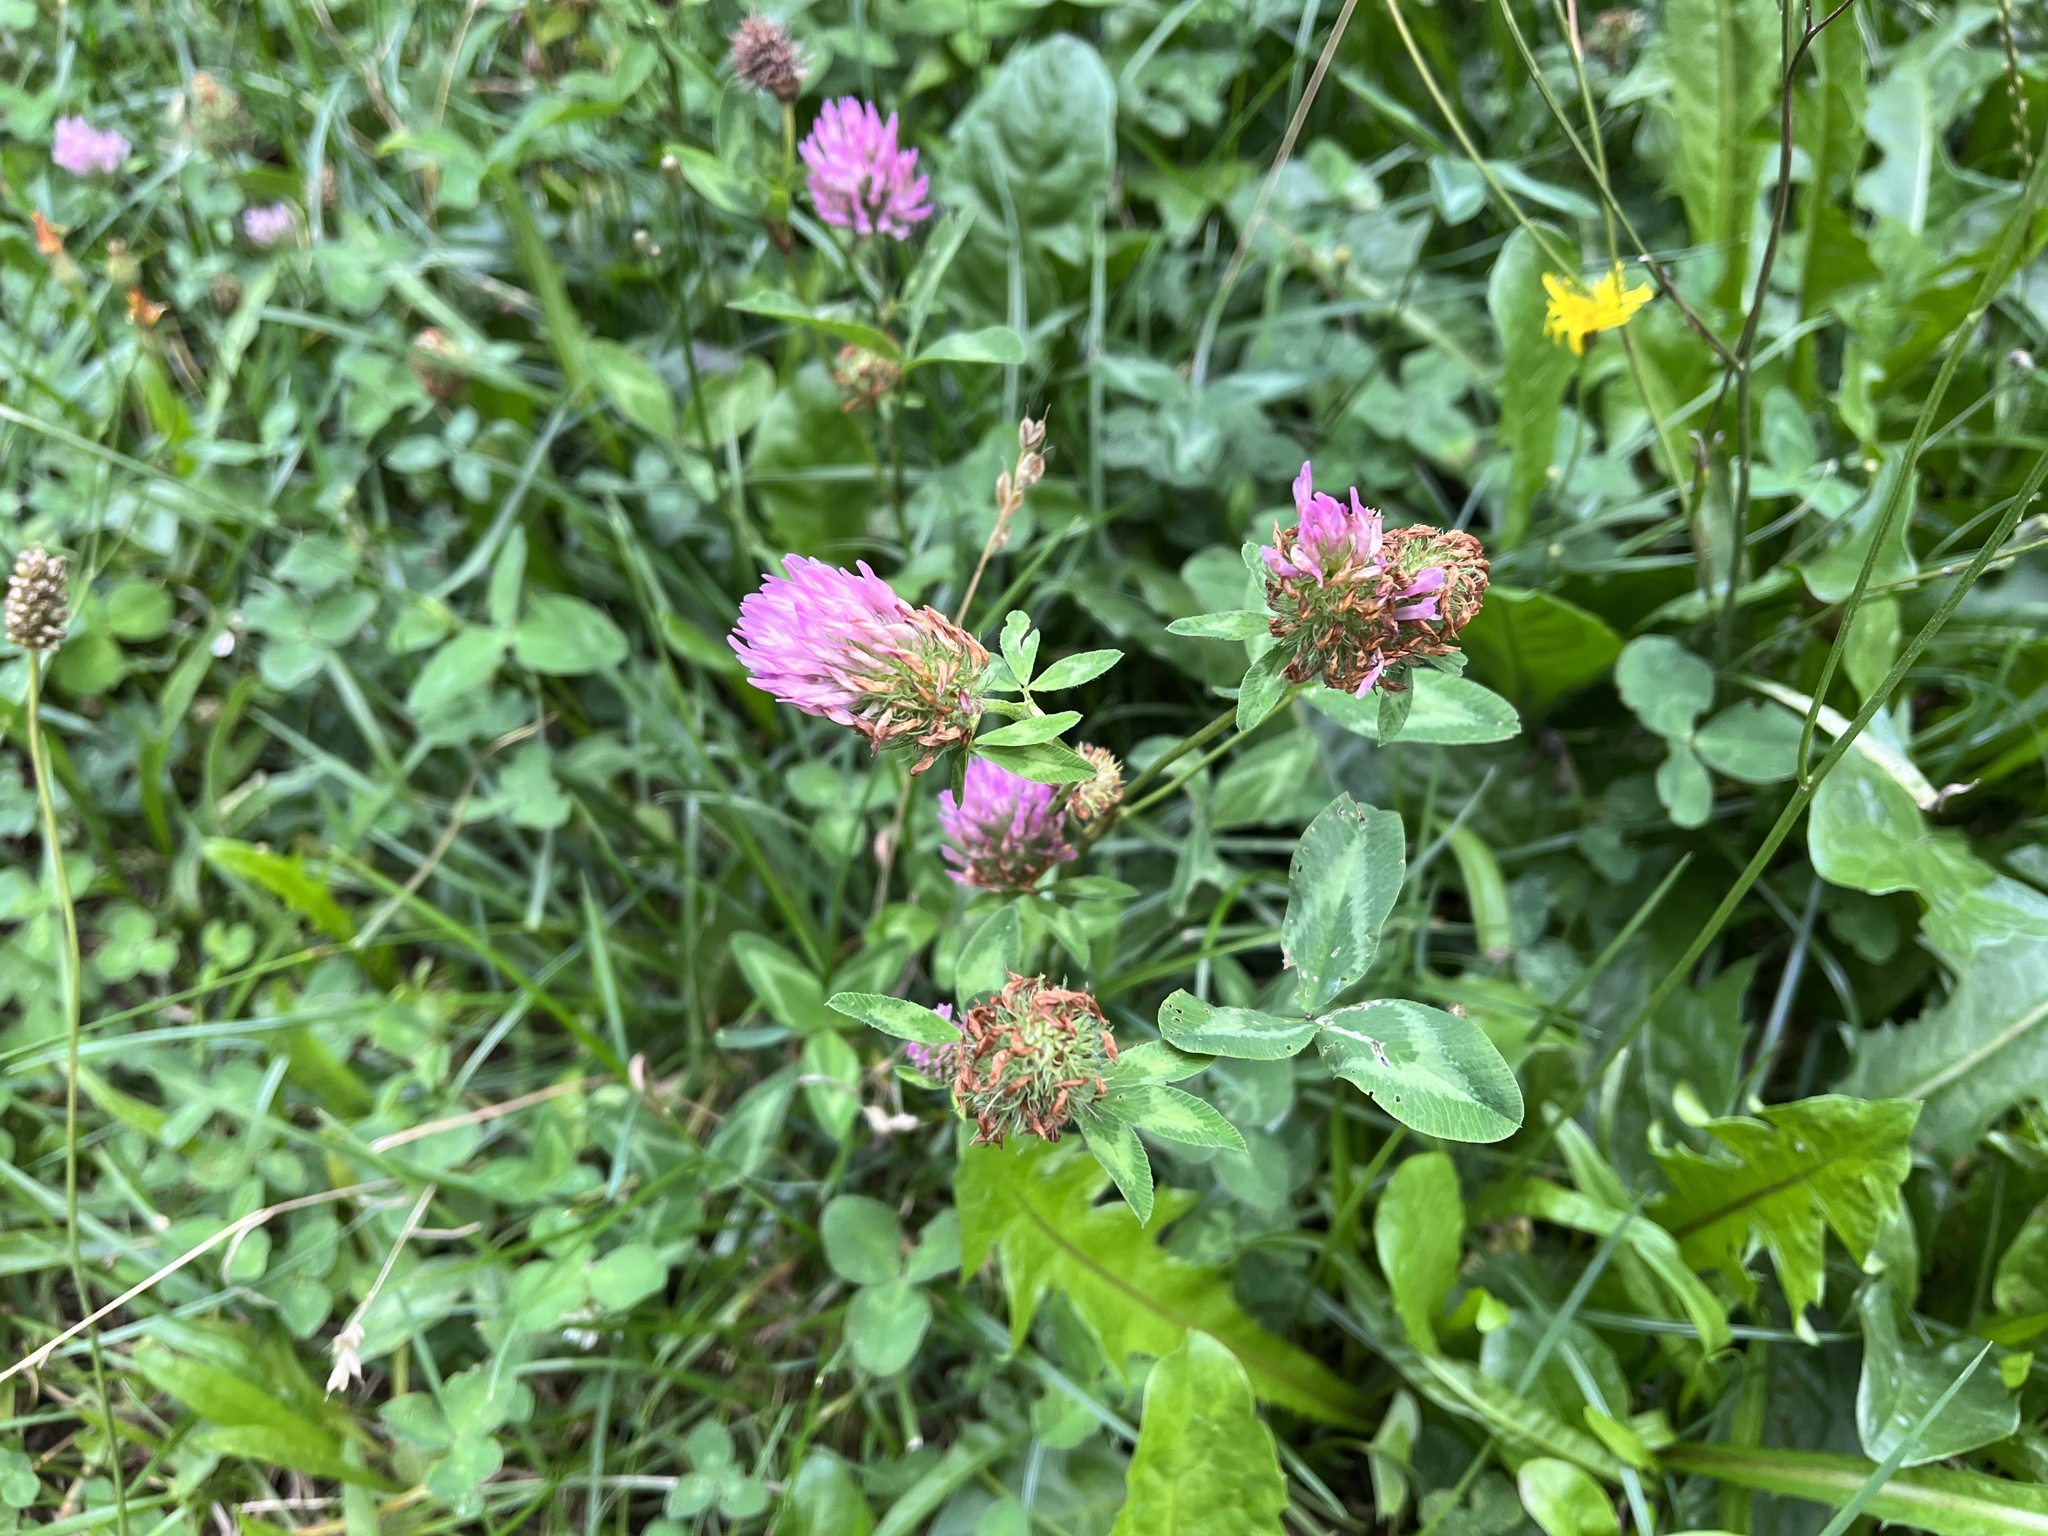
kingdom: Plantae
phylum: Tracheophyta
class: Magnoliopsida
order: Fabales
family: Fabaceae
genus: Trifolium
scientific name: Trifolium pratense
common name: Red clover
